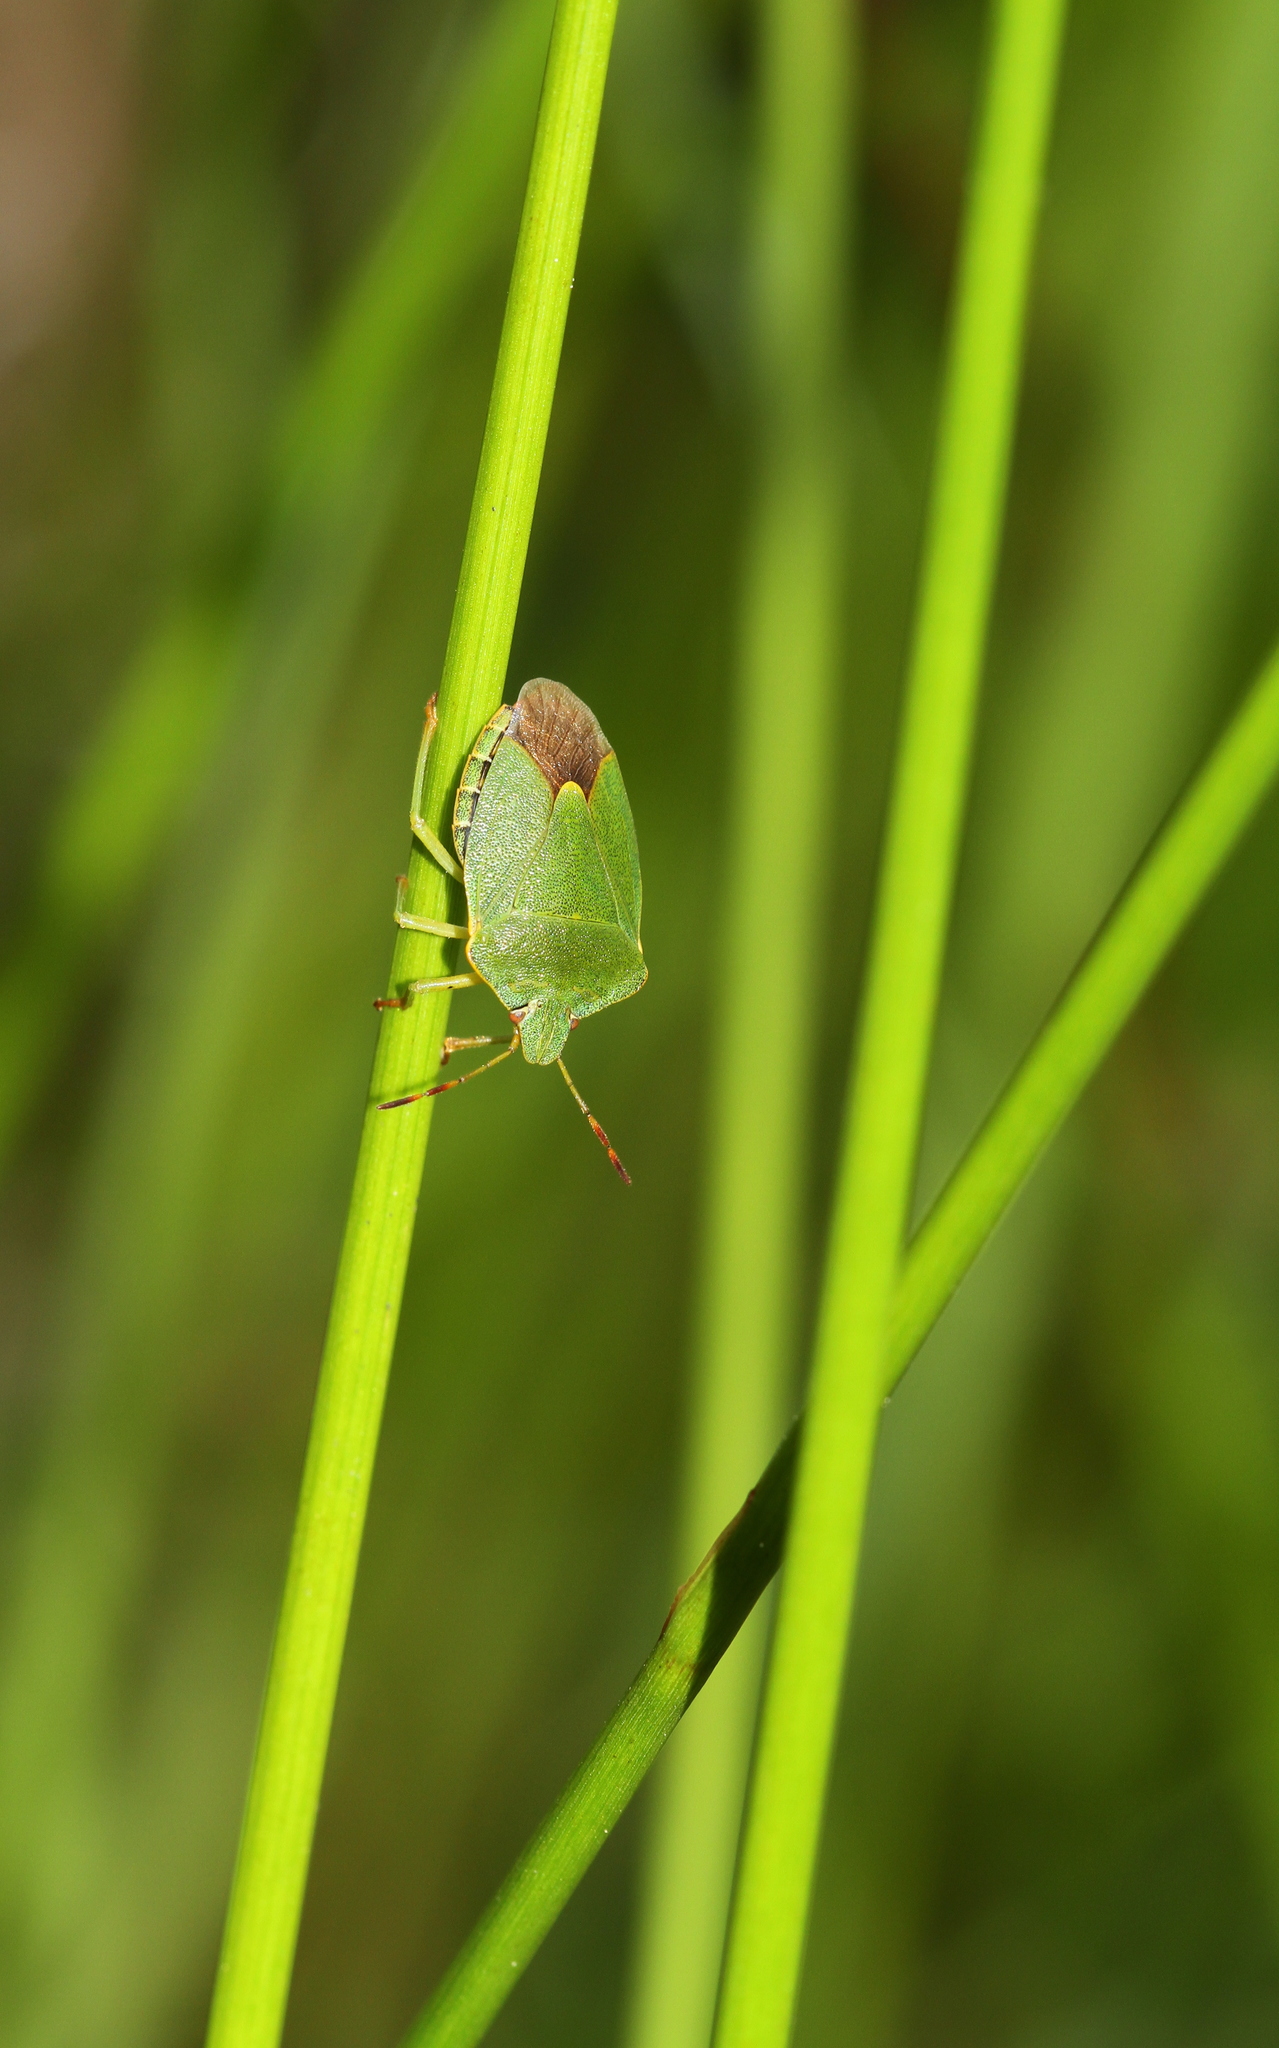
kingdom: Animalia
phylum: Arthropoda
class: Insecta
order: Hemiptera
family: Pentatomidae
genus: Palomena
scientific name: Palomena prasina
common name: Green shieldbug
